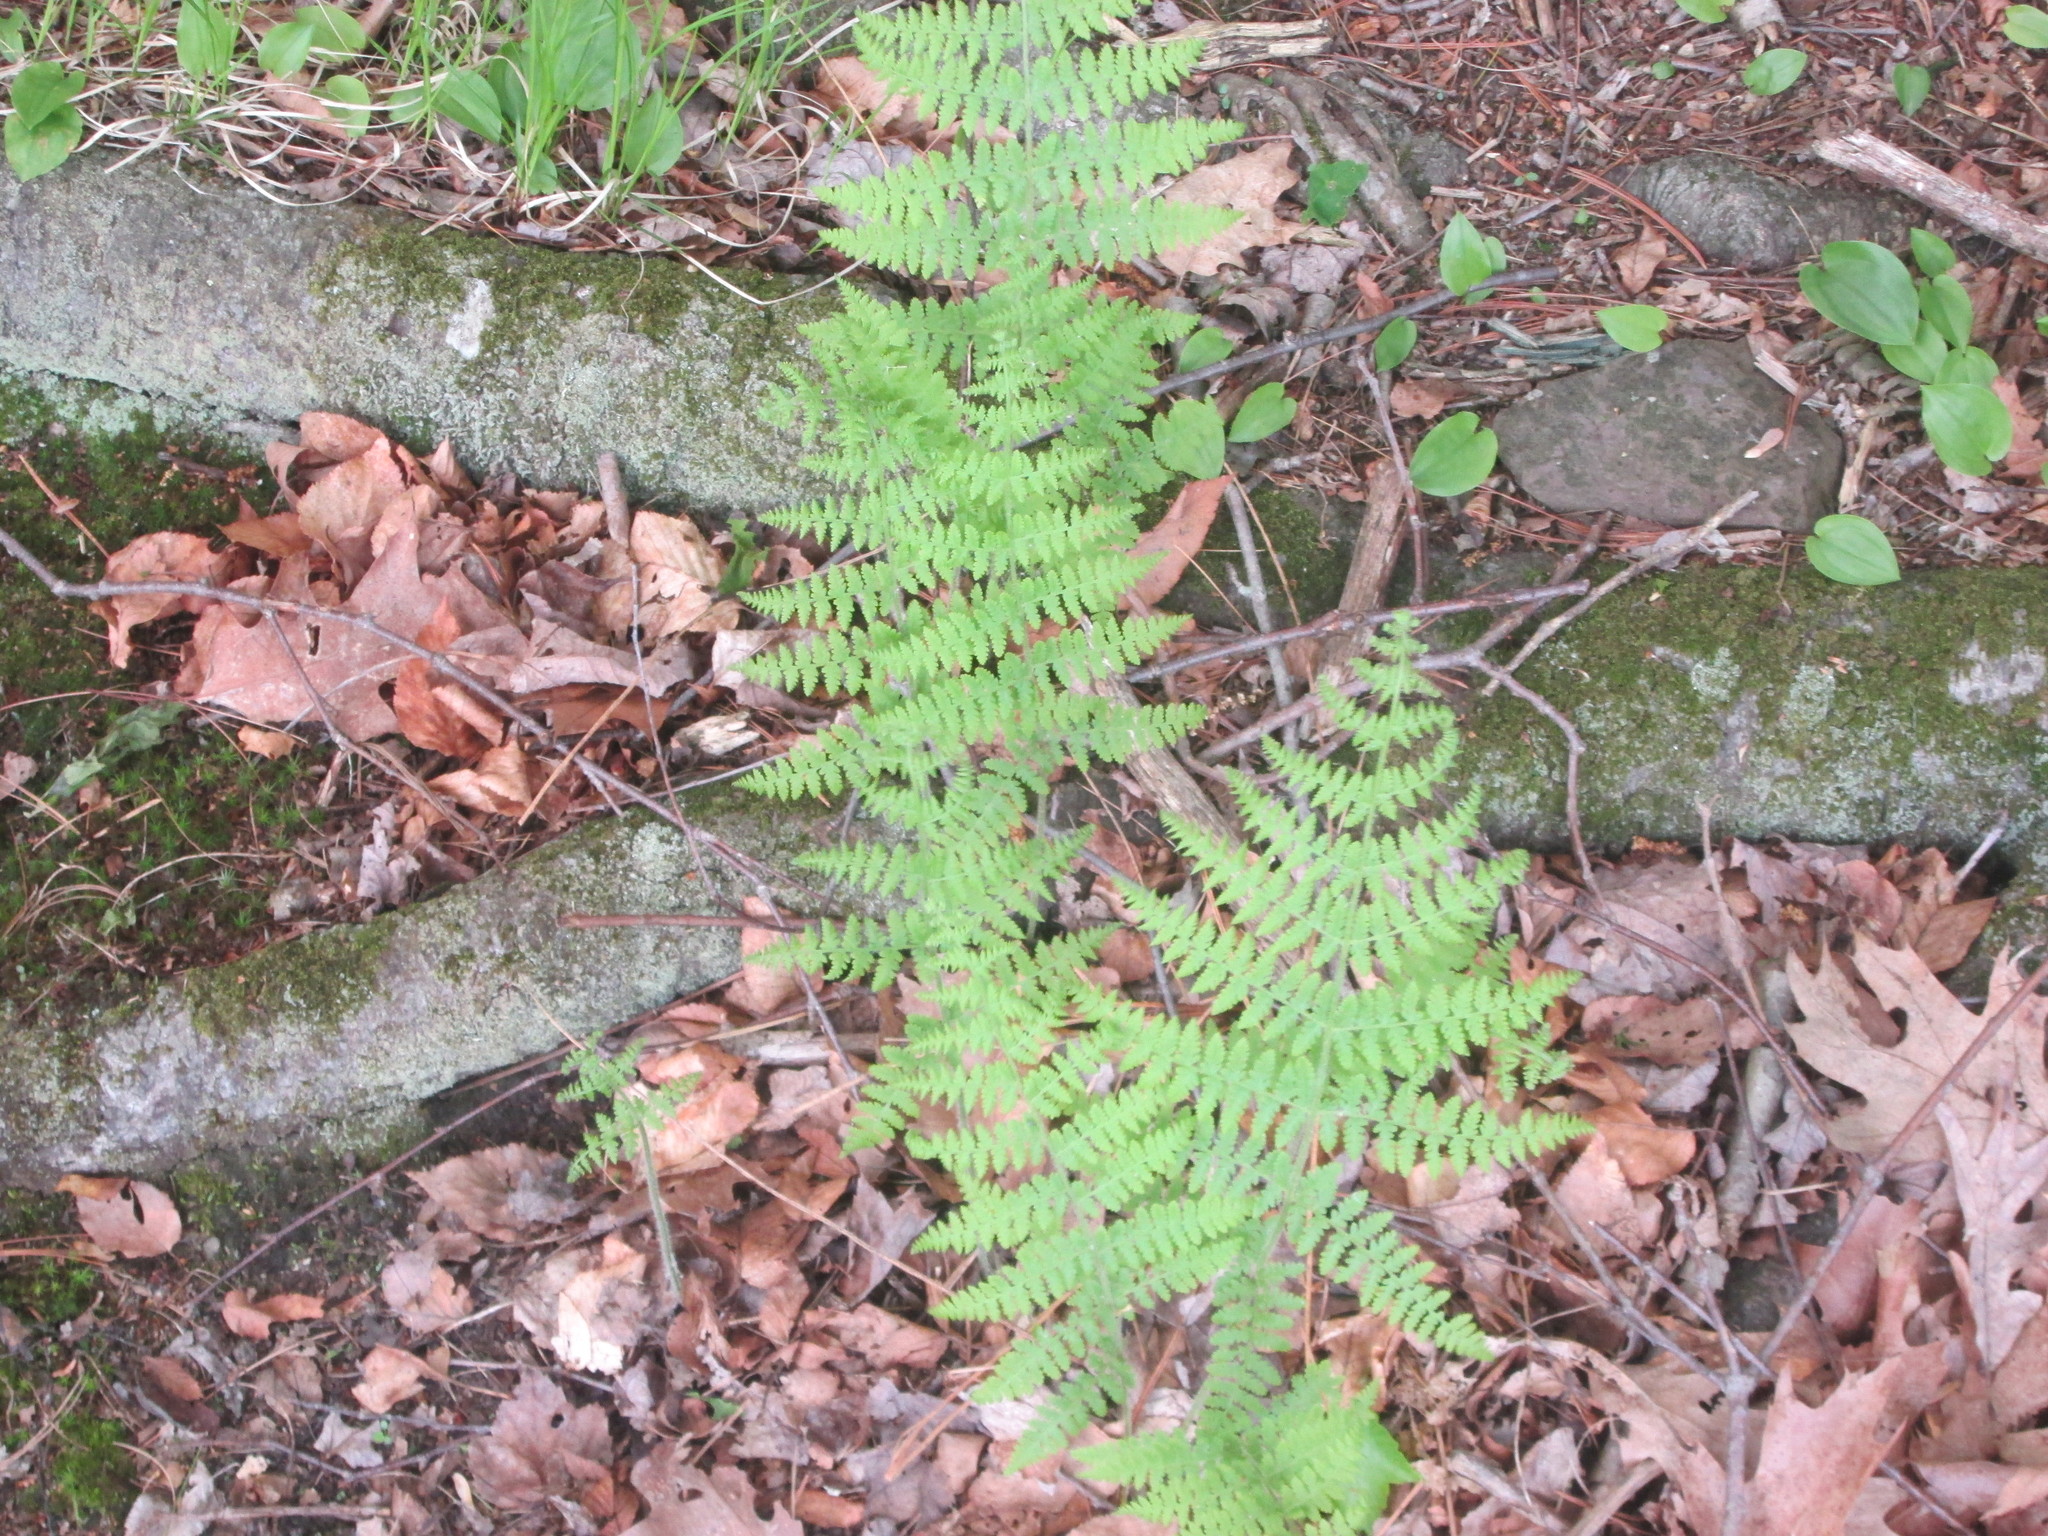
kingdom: Plantae
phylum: Tracheophyta
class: Polypodiopsida
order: Polypodiales
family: Dennstaedtiaceae
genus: Sitobolium
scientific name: Sitobolium punctilobum
